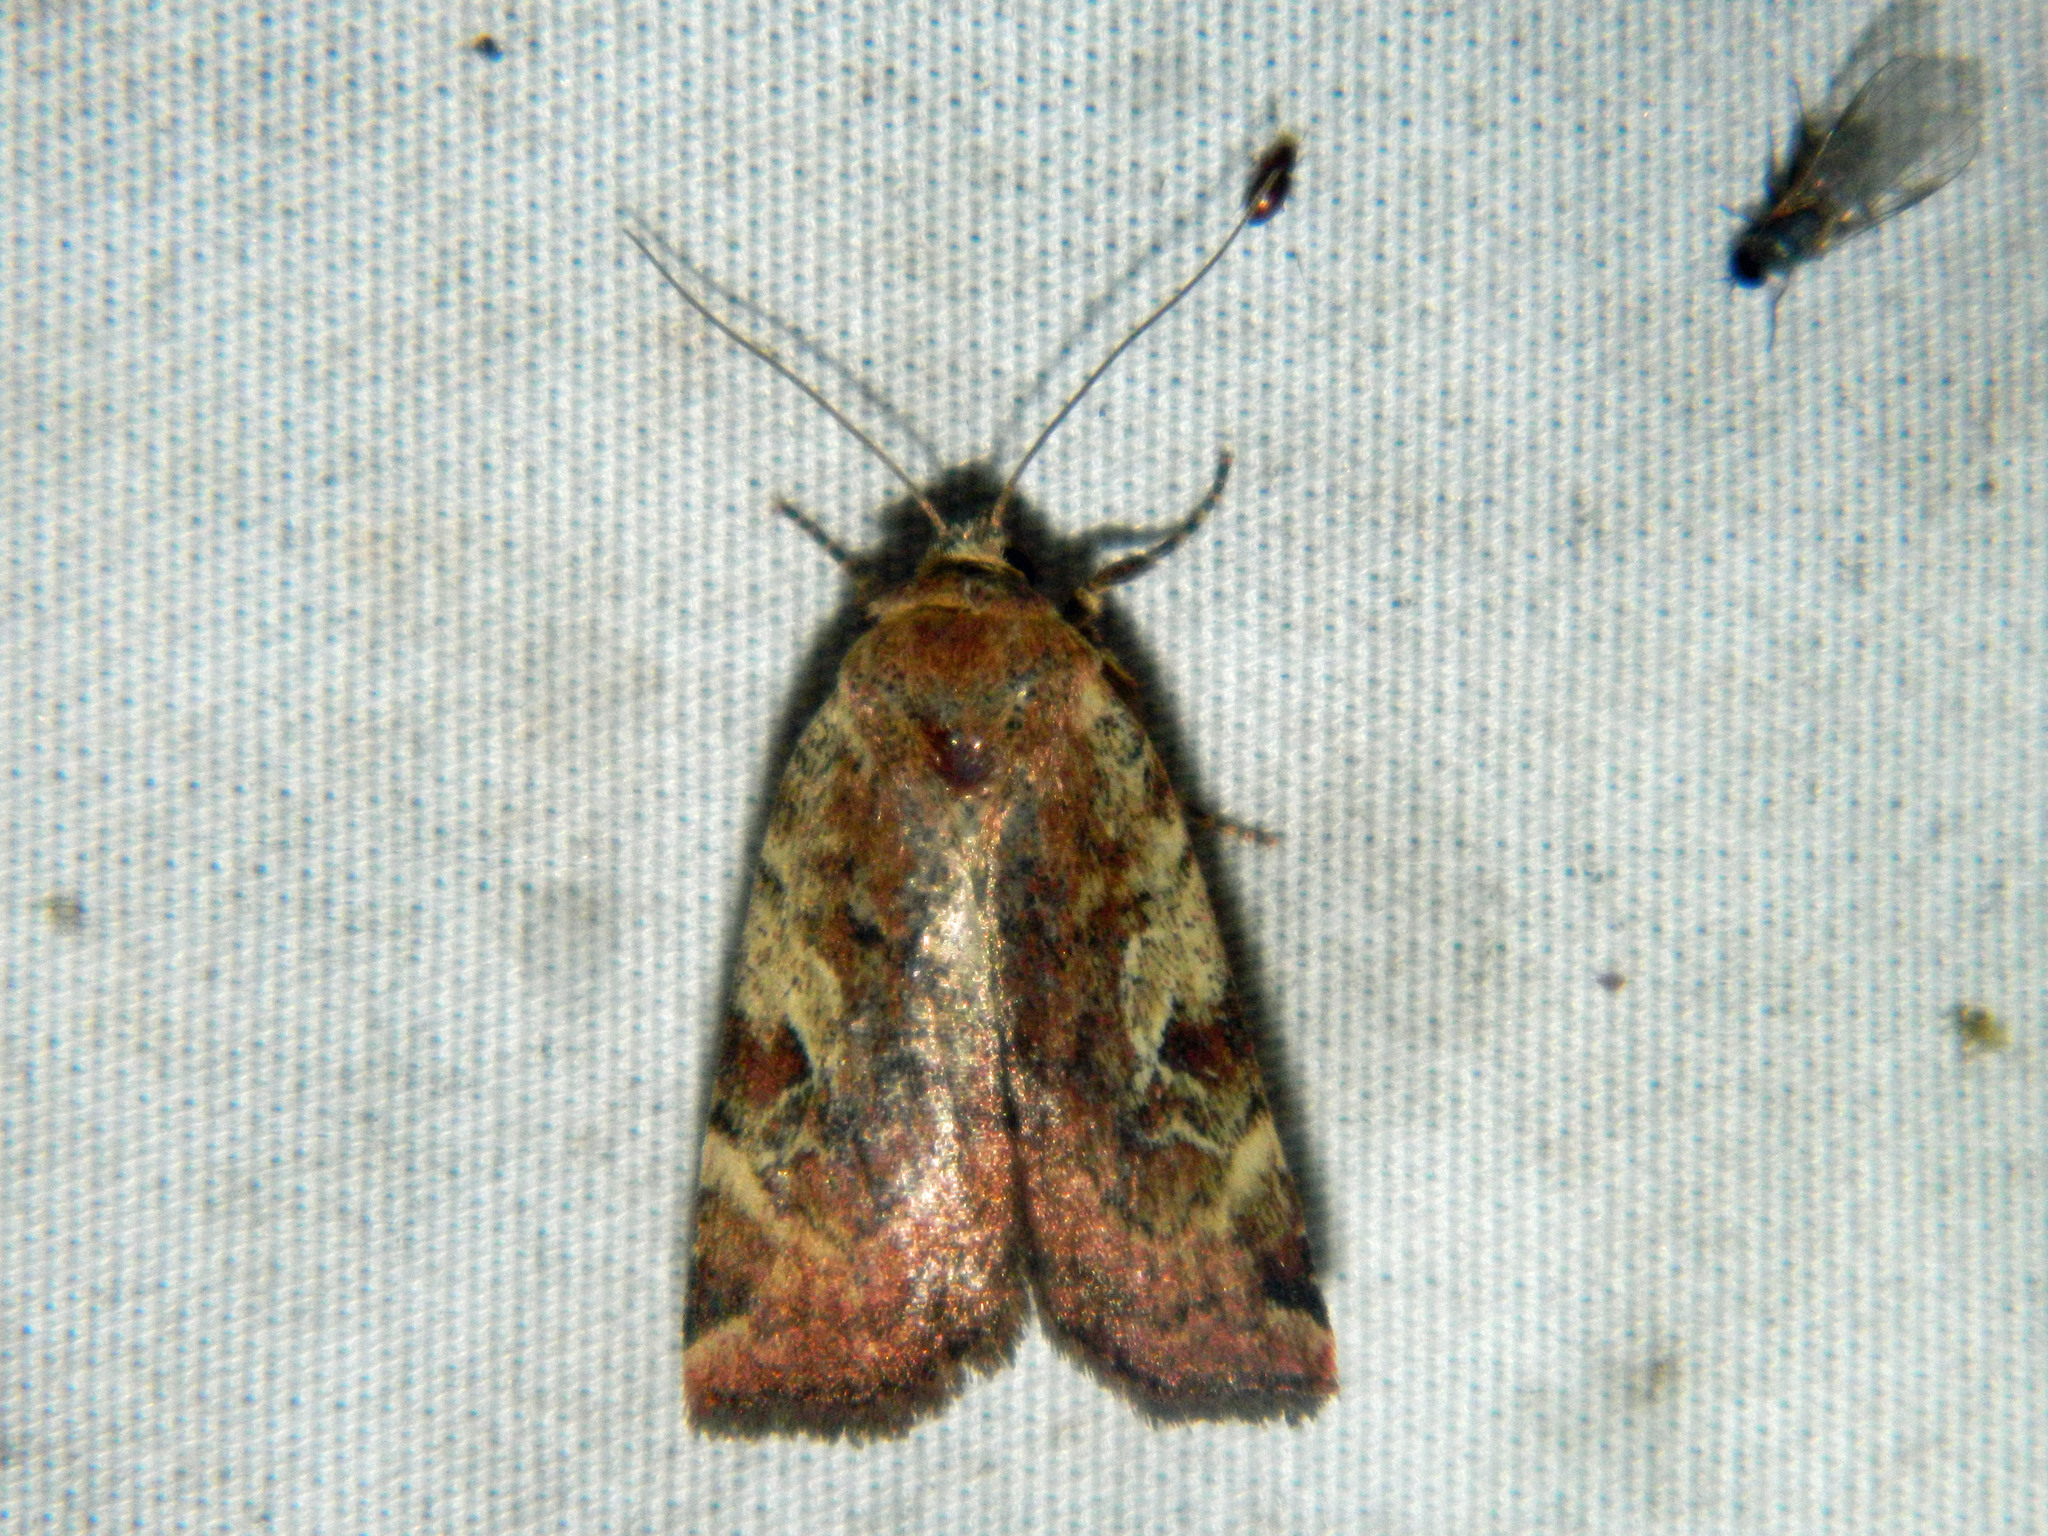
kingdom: Animalia
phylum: Arthropoda
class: Insecta
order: Lepidoptera
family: Noctuidae
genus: Cryptocala
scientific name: Cryptocala acadiensis
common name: Catocaline dart
